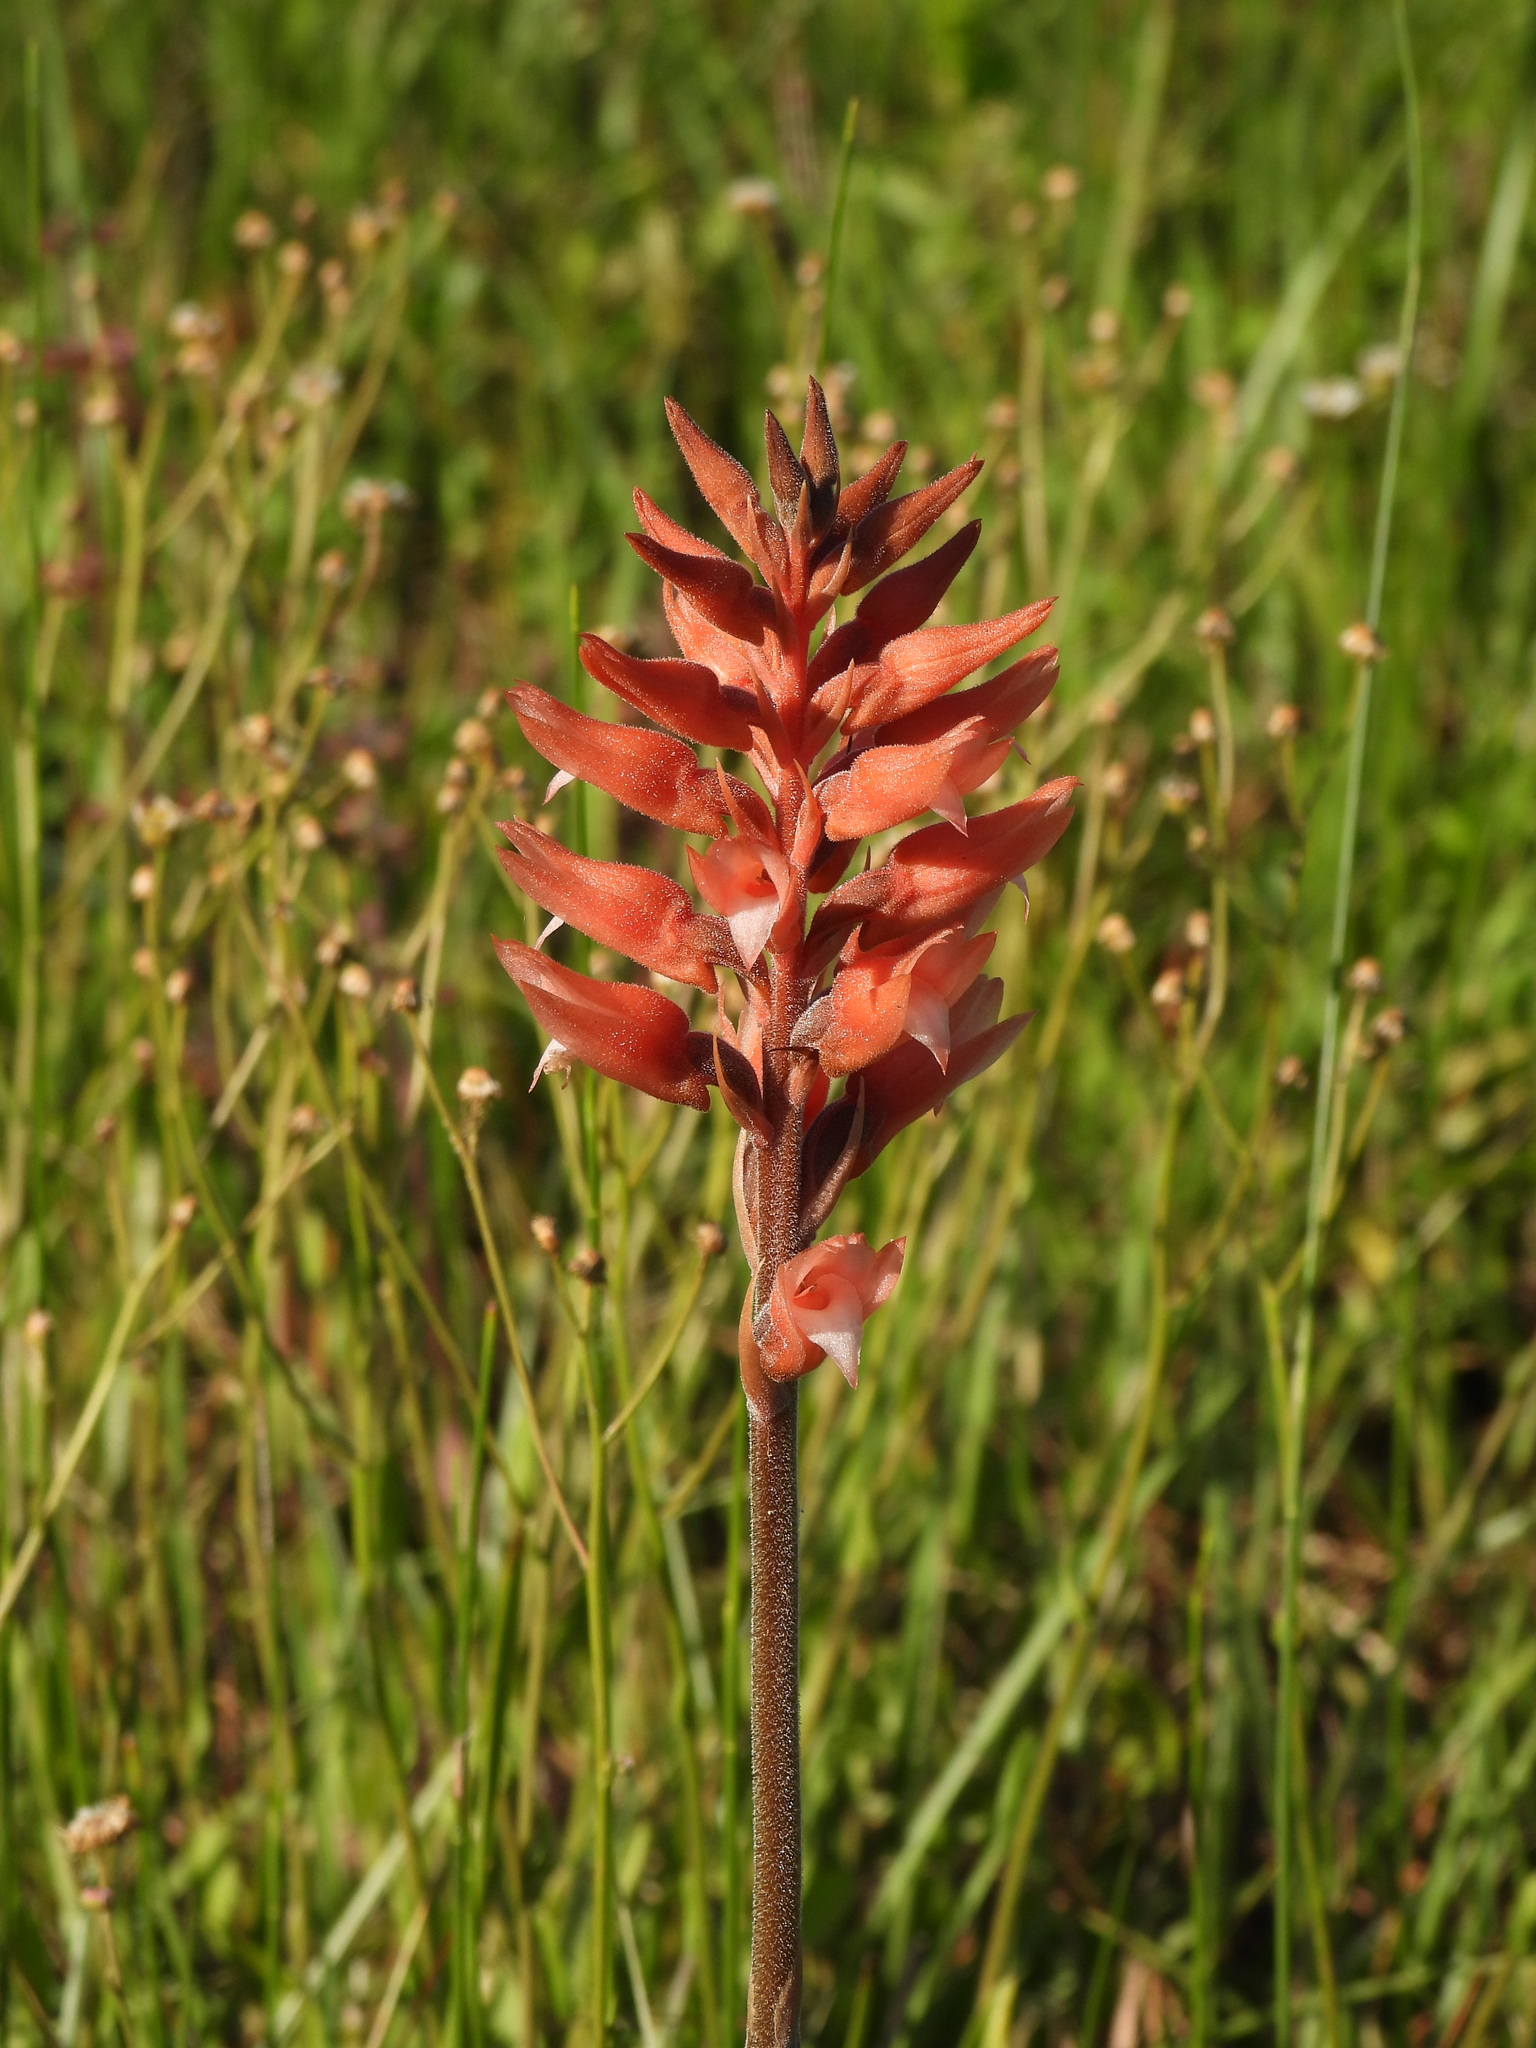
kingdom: Plantae
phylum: Tracheophyta
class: Liliopsida
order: Asparagales
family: Orchidaceae
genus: Sacoila
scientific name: Sacoila lanceolata
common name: Leafless beaked ladiestresses
